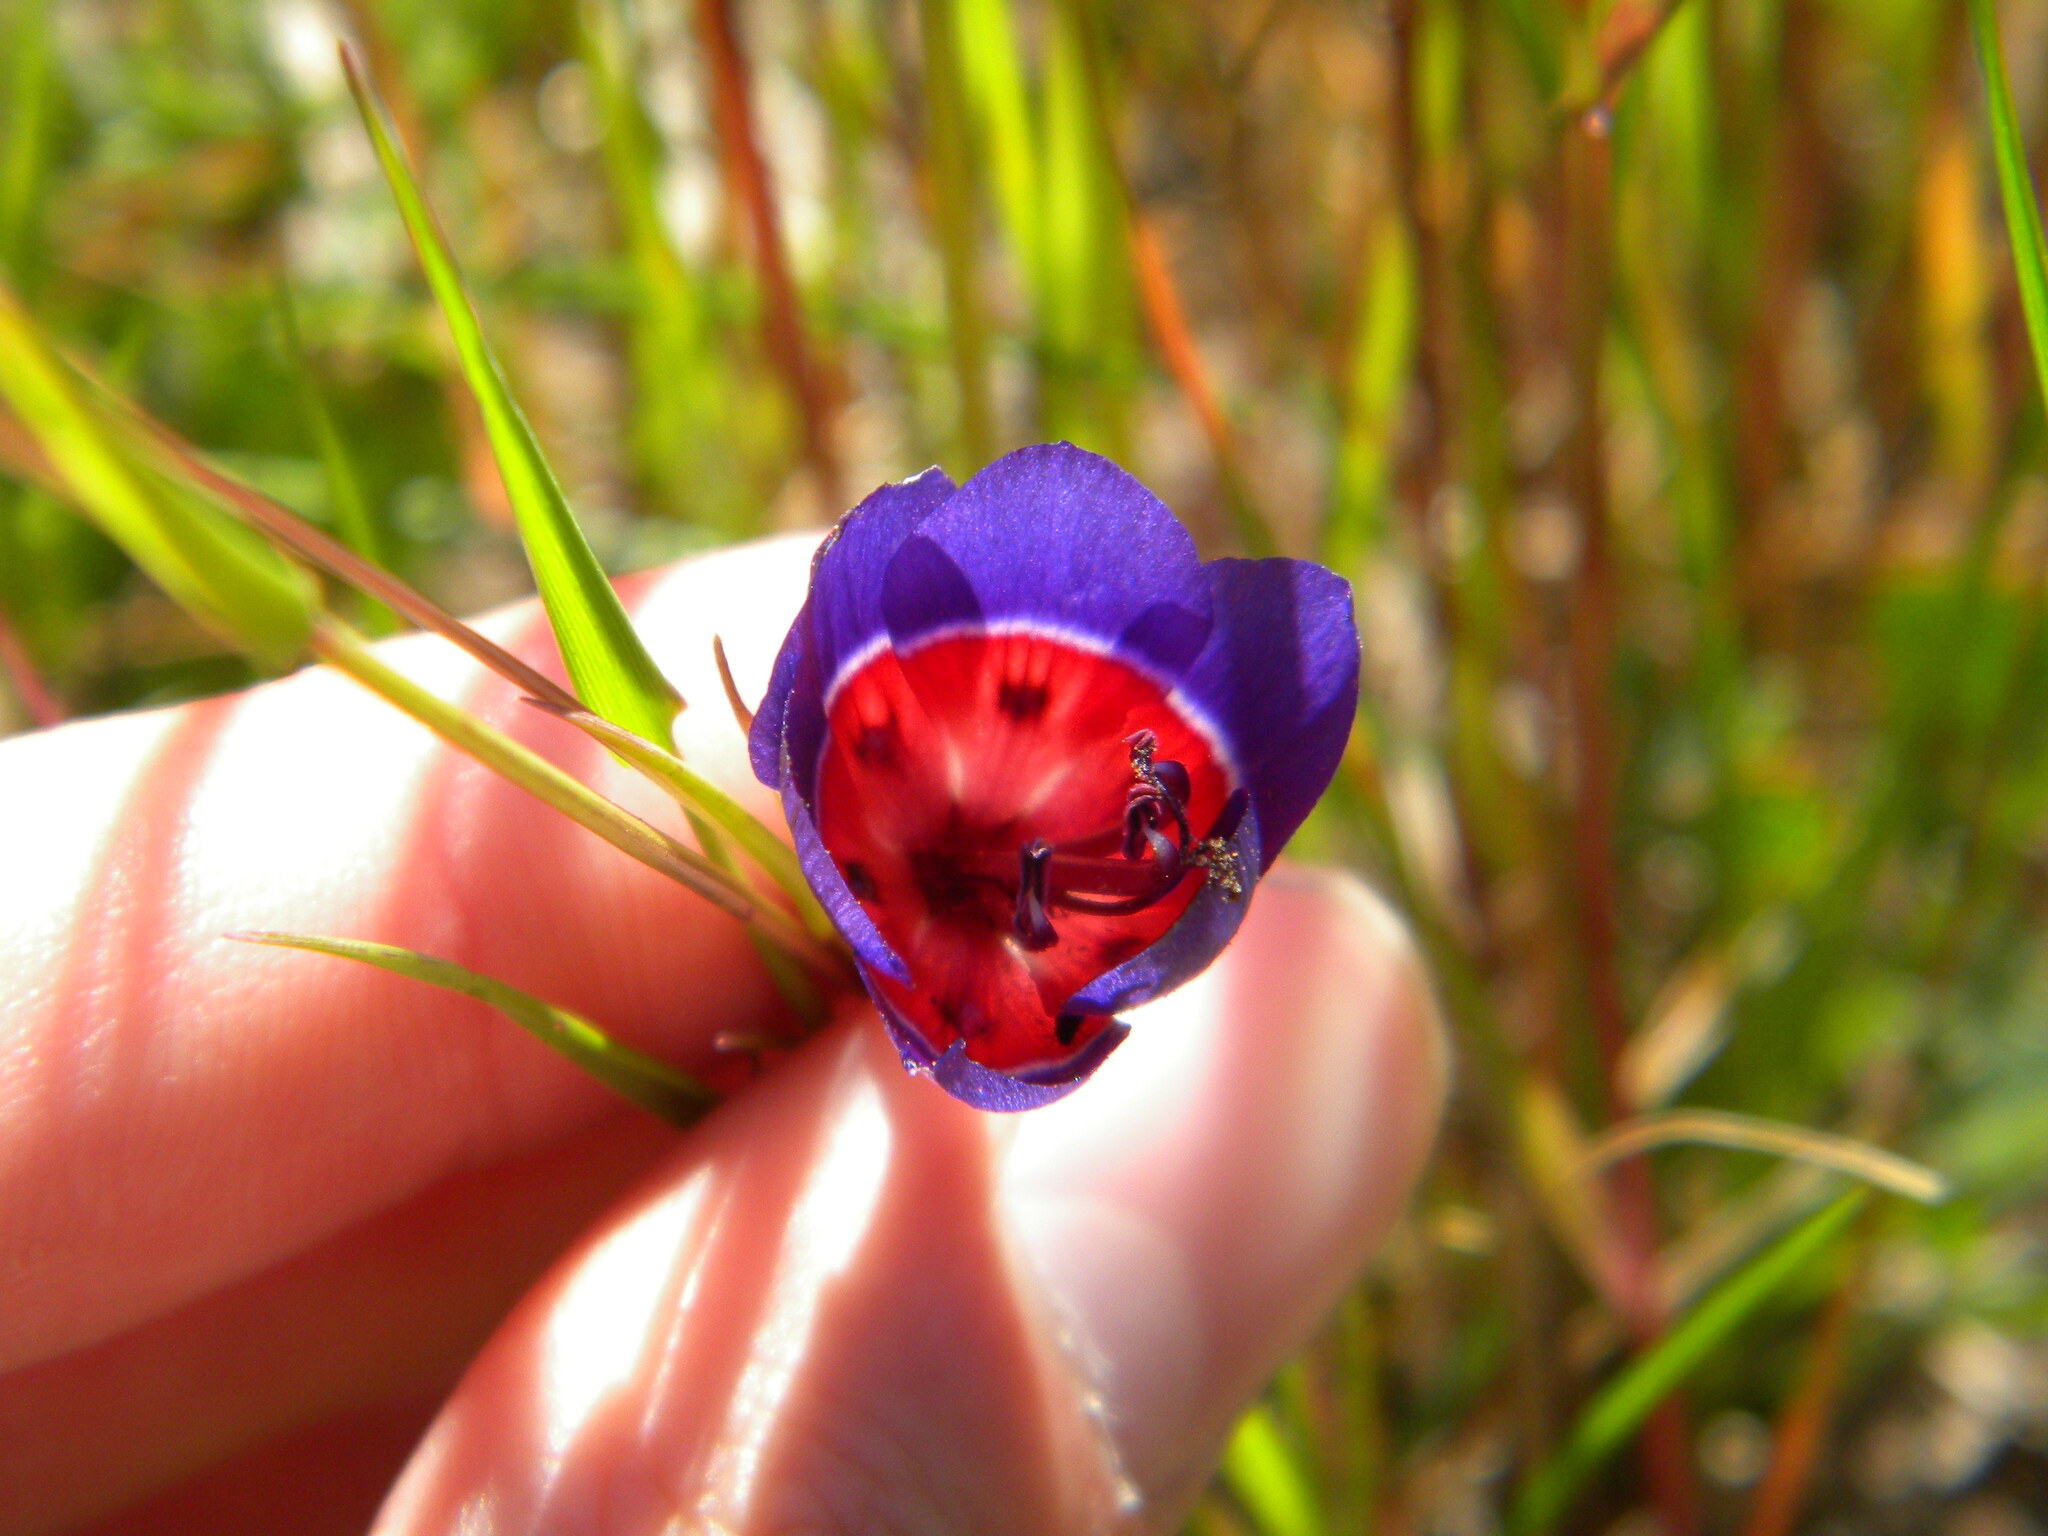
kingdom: Plantae
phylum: Tracheophyta
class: Liliopsida
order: Asparagales
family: Iridaceae
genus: Geissorhiza
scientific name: Geissorhiza radians
